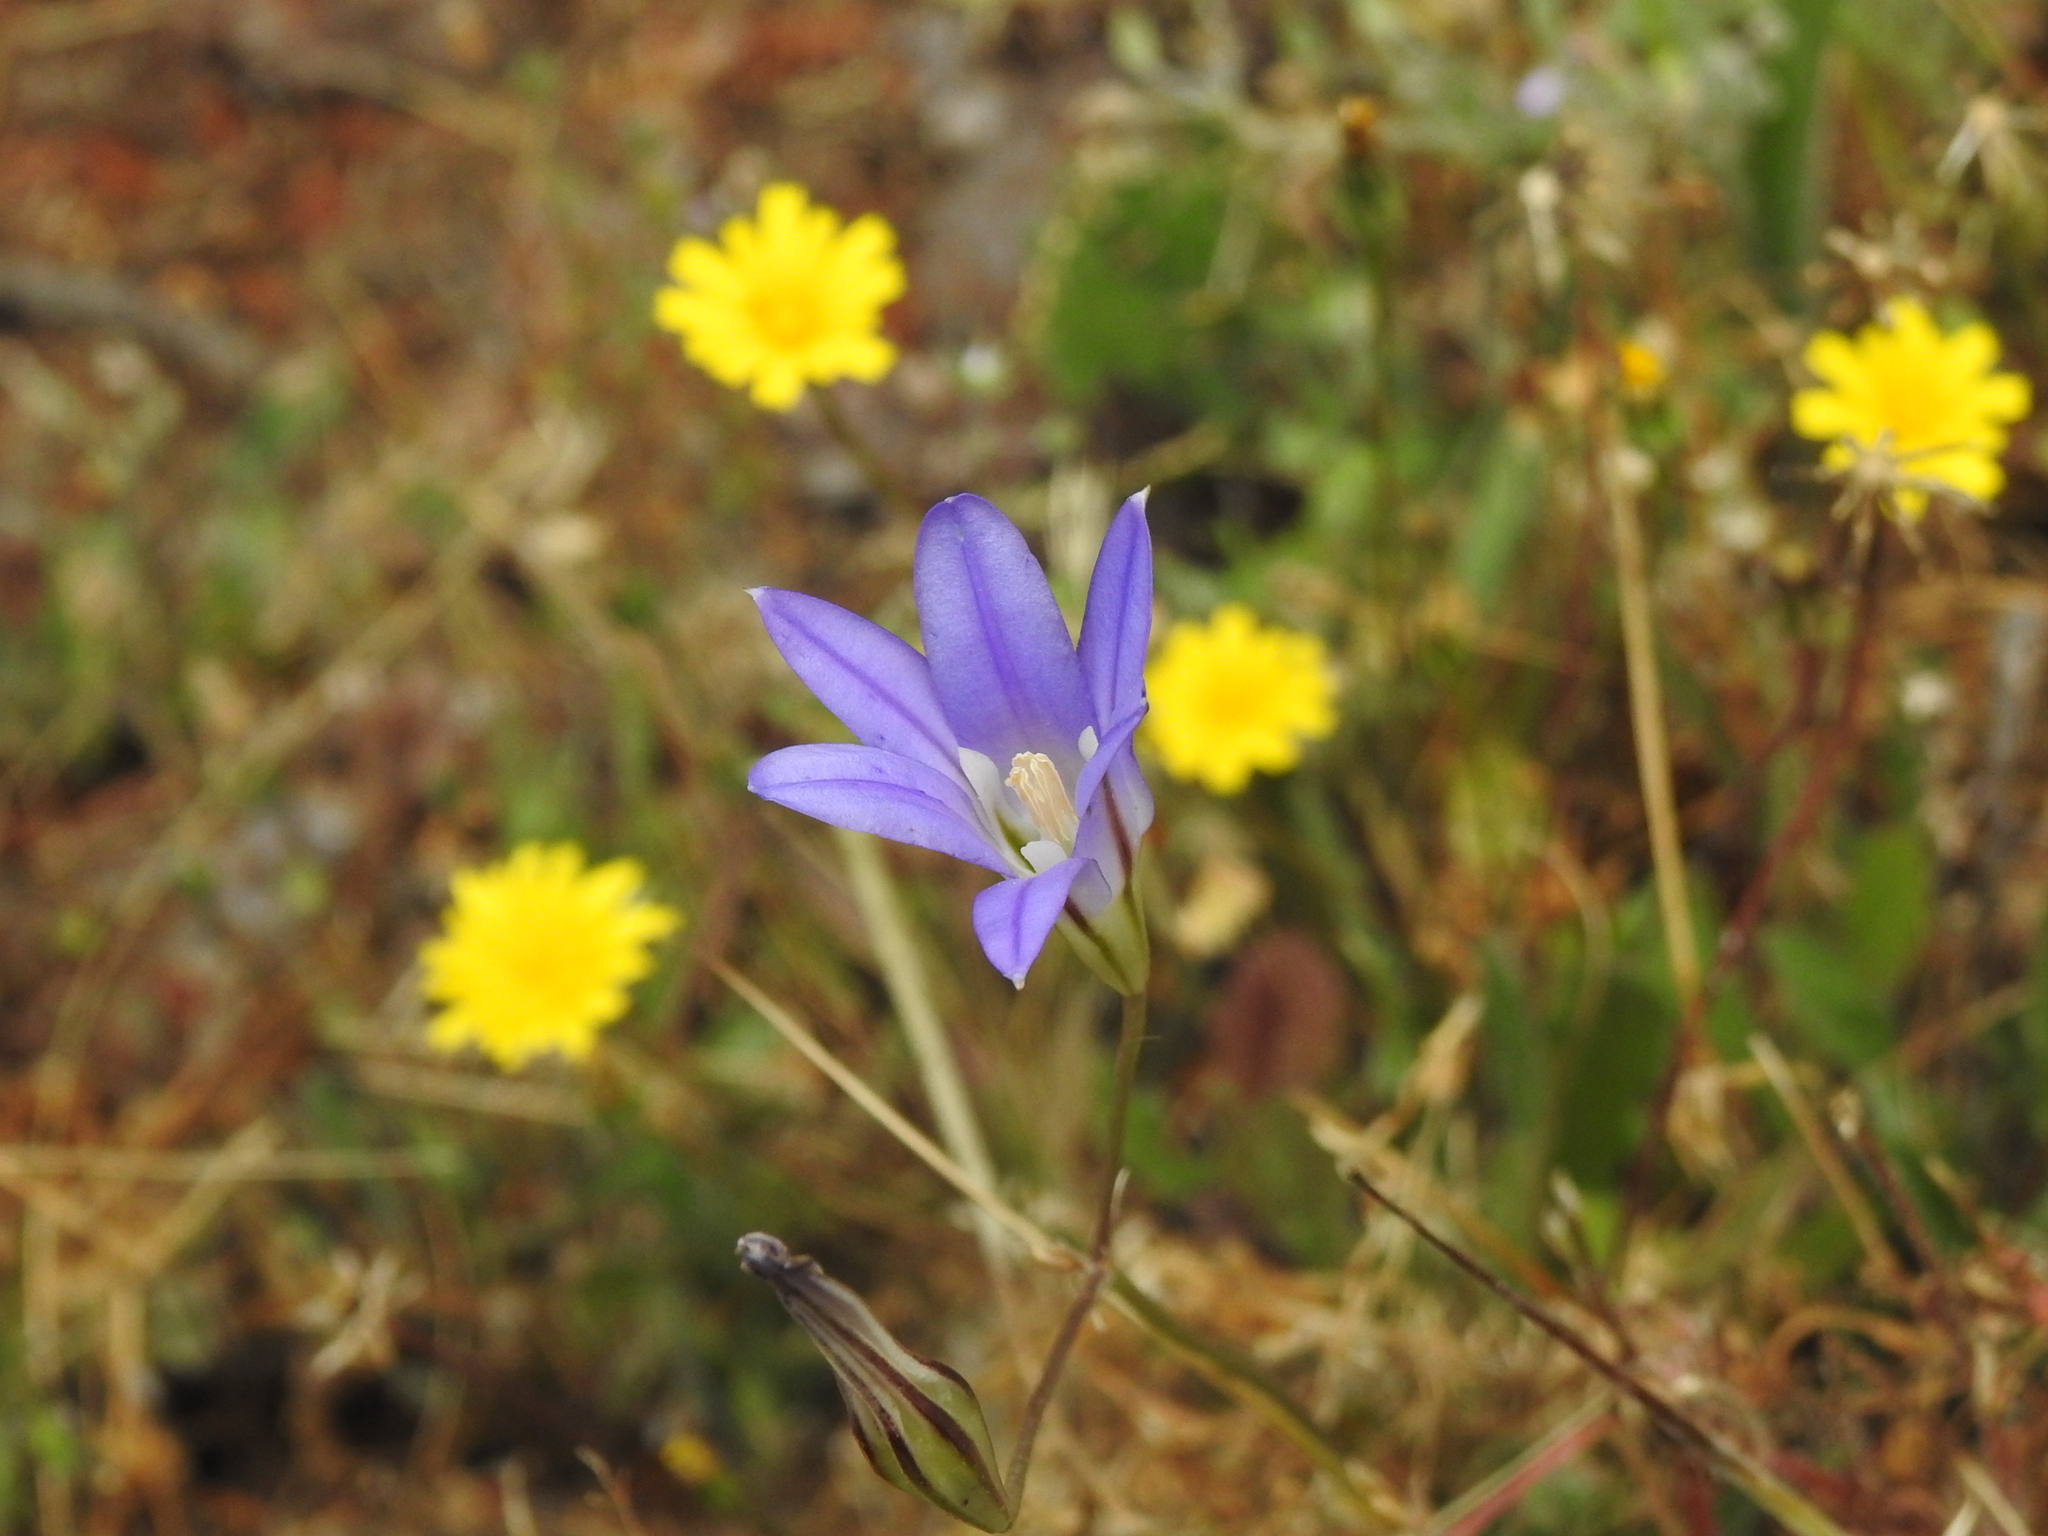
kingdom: Plantae
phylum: Tracheophyta
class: Liliopsida
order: Asparagales
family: Asparagaceae
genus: Brodiaea
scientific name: Brodiaea elegans
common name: Elegant cluster-lily
